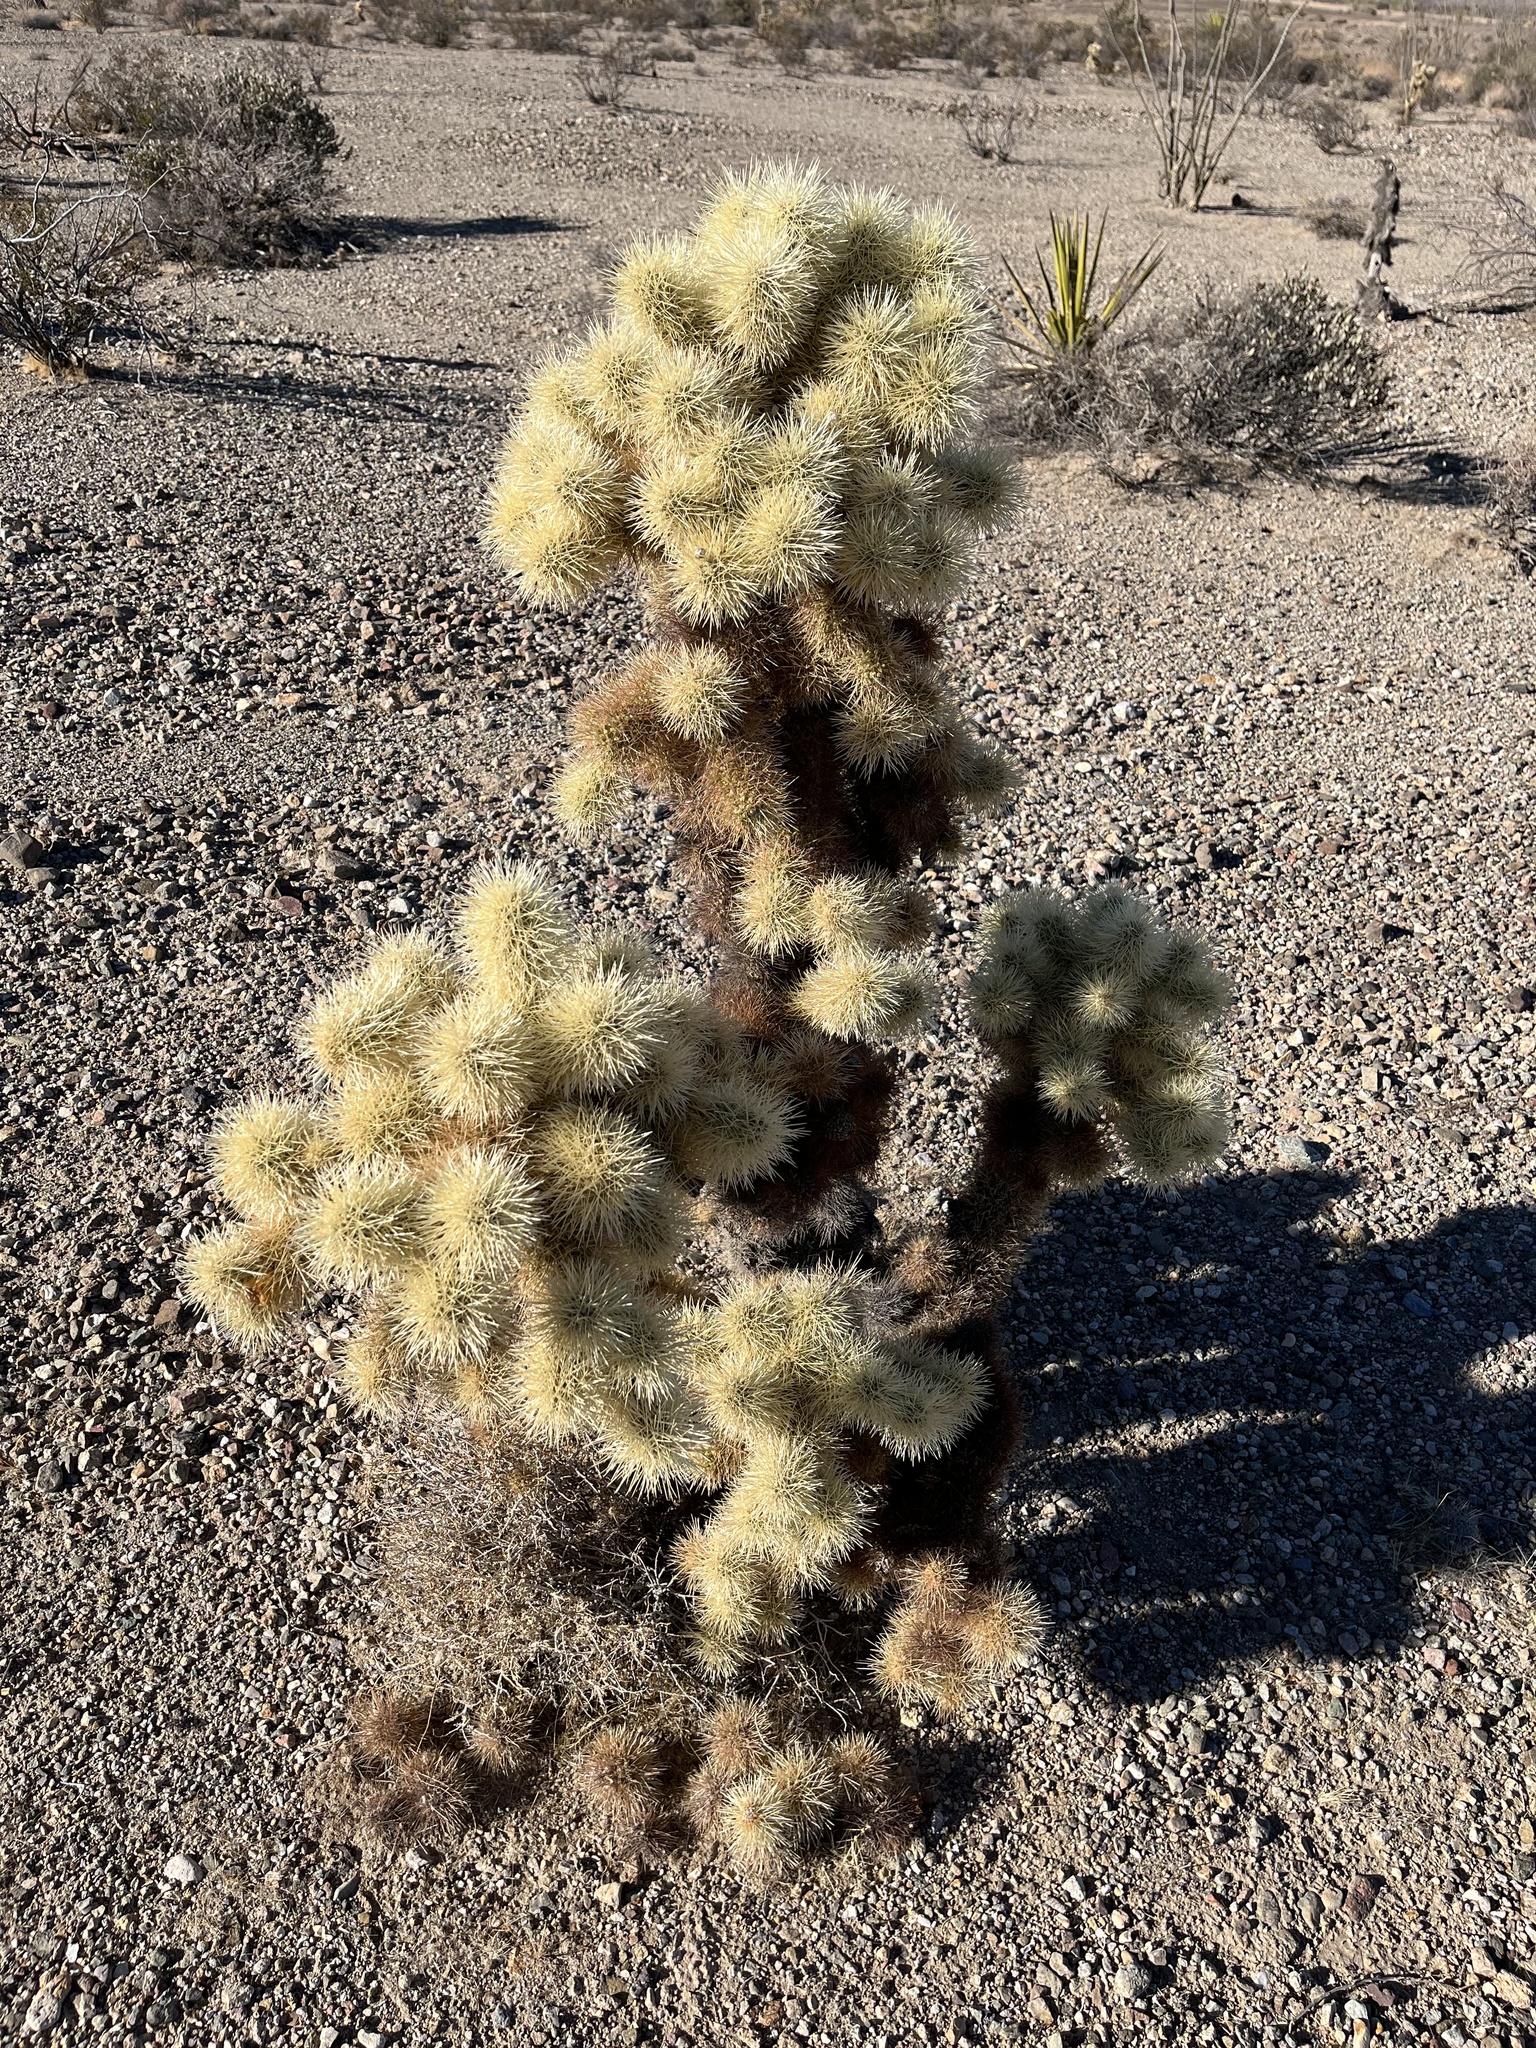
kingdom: Plantae
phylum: Tracheophyta
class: Magnoliopsida
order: Caryophyllales
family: Cactaceae
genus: Cylindropuntia
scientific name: Cylindropuntia fosbergii
